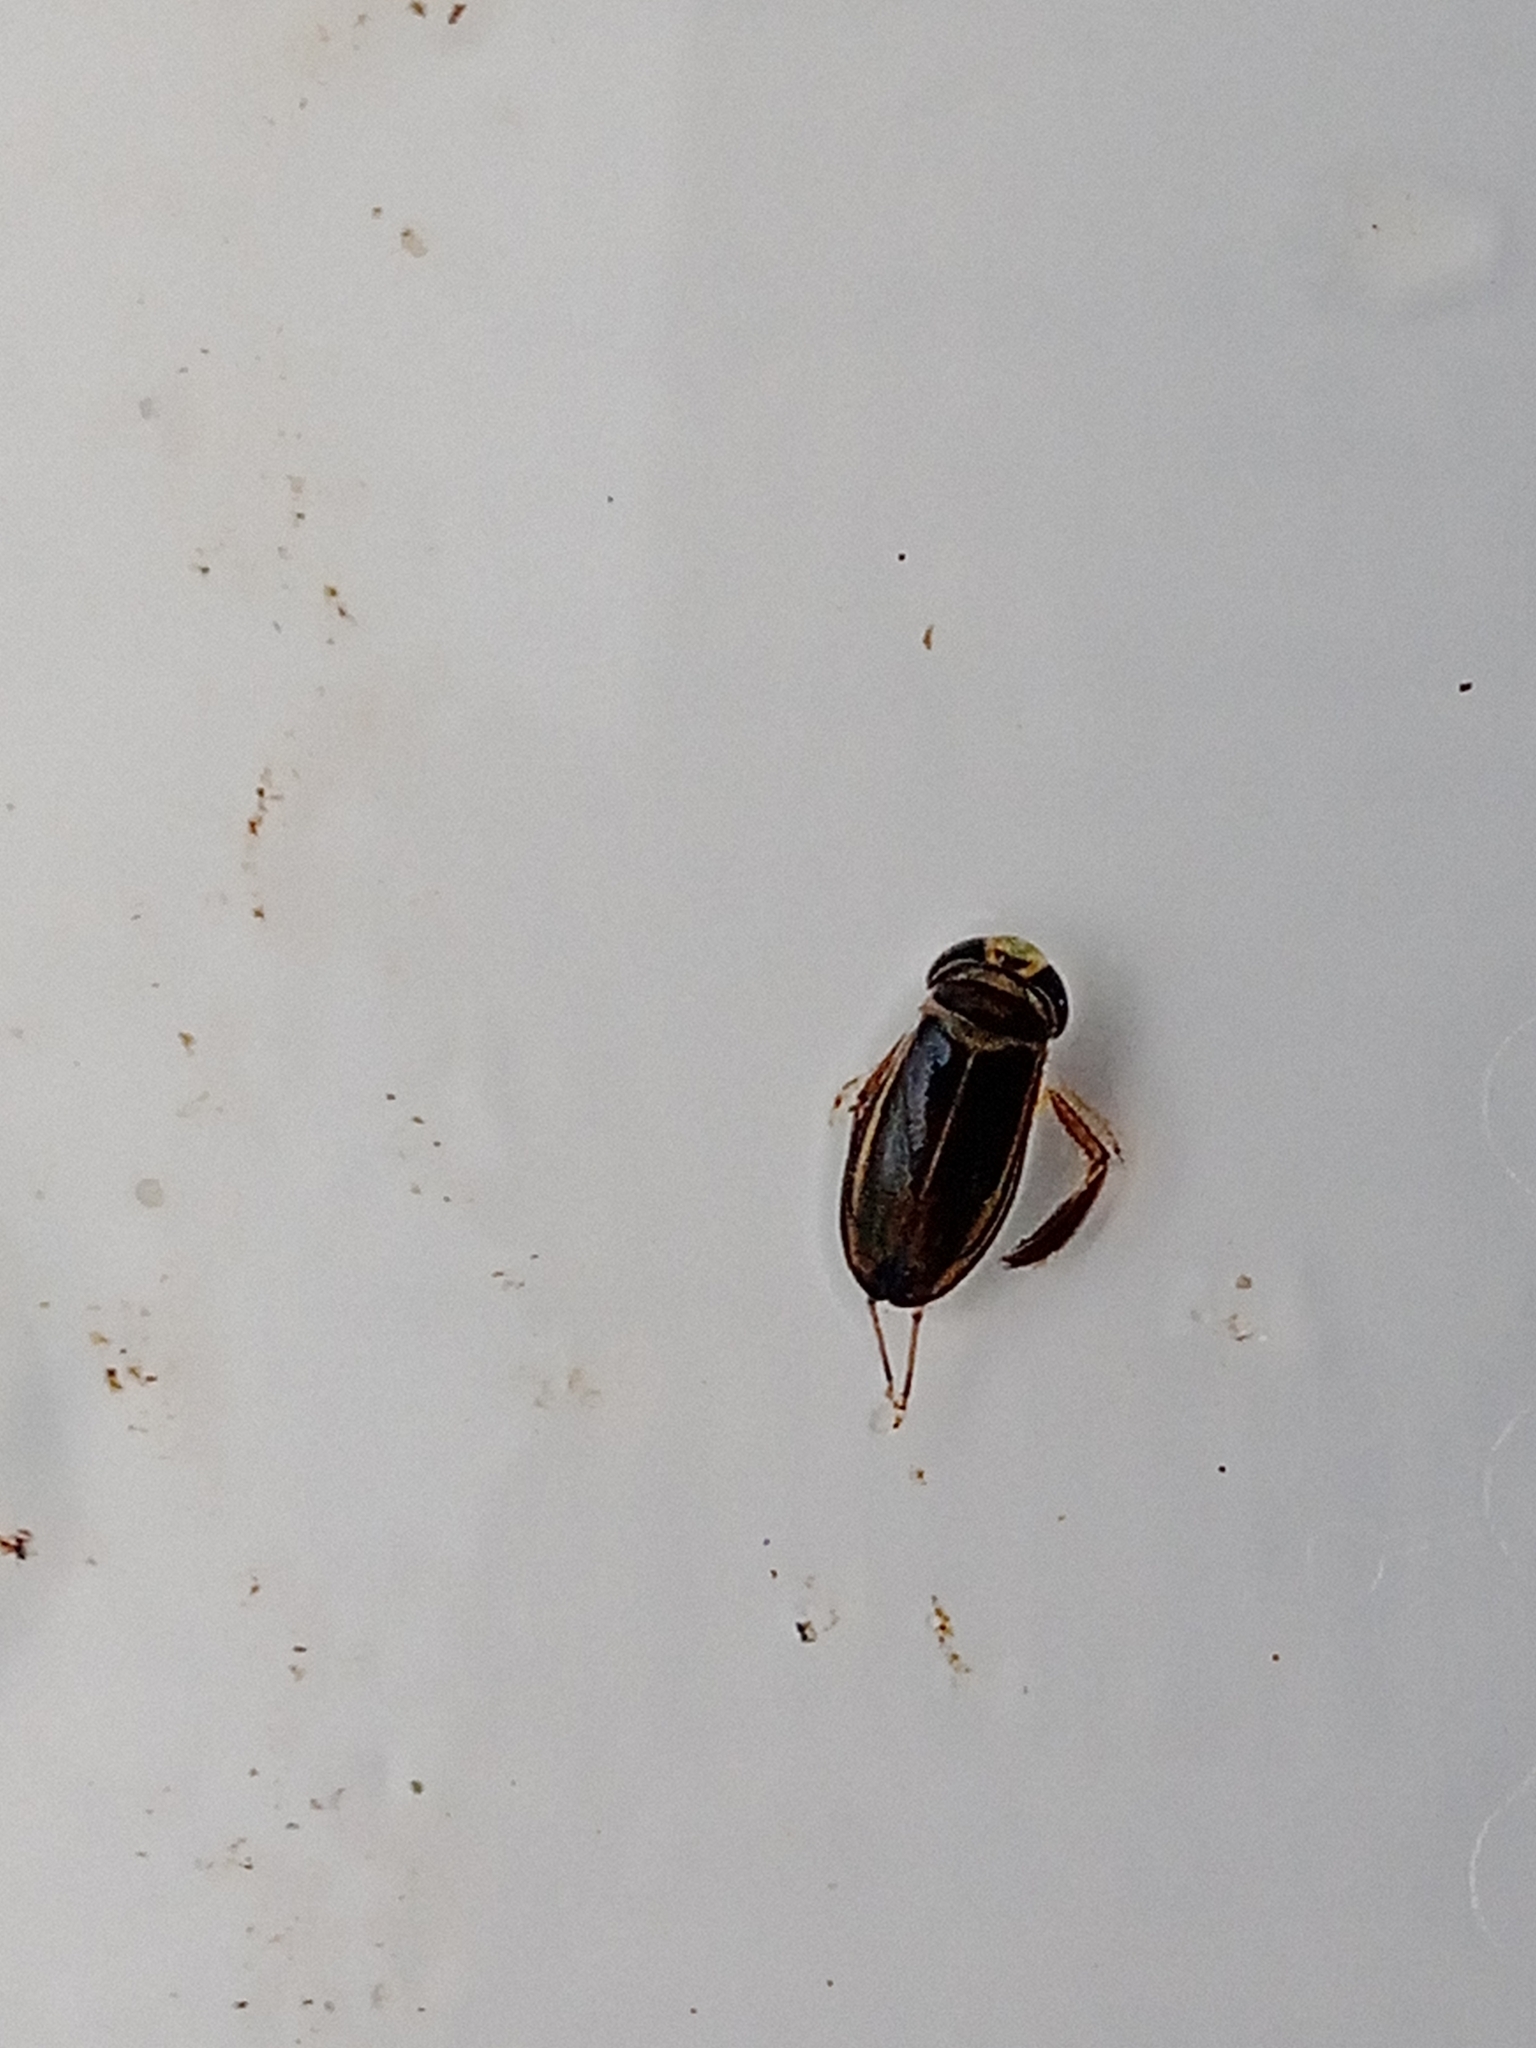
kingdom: Animalia
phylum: Arthropoda
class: Insecta
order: Hemiptera
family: Corixidae
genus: Cymatia
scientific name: Cymatia coleoptrata
